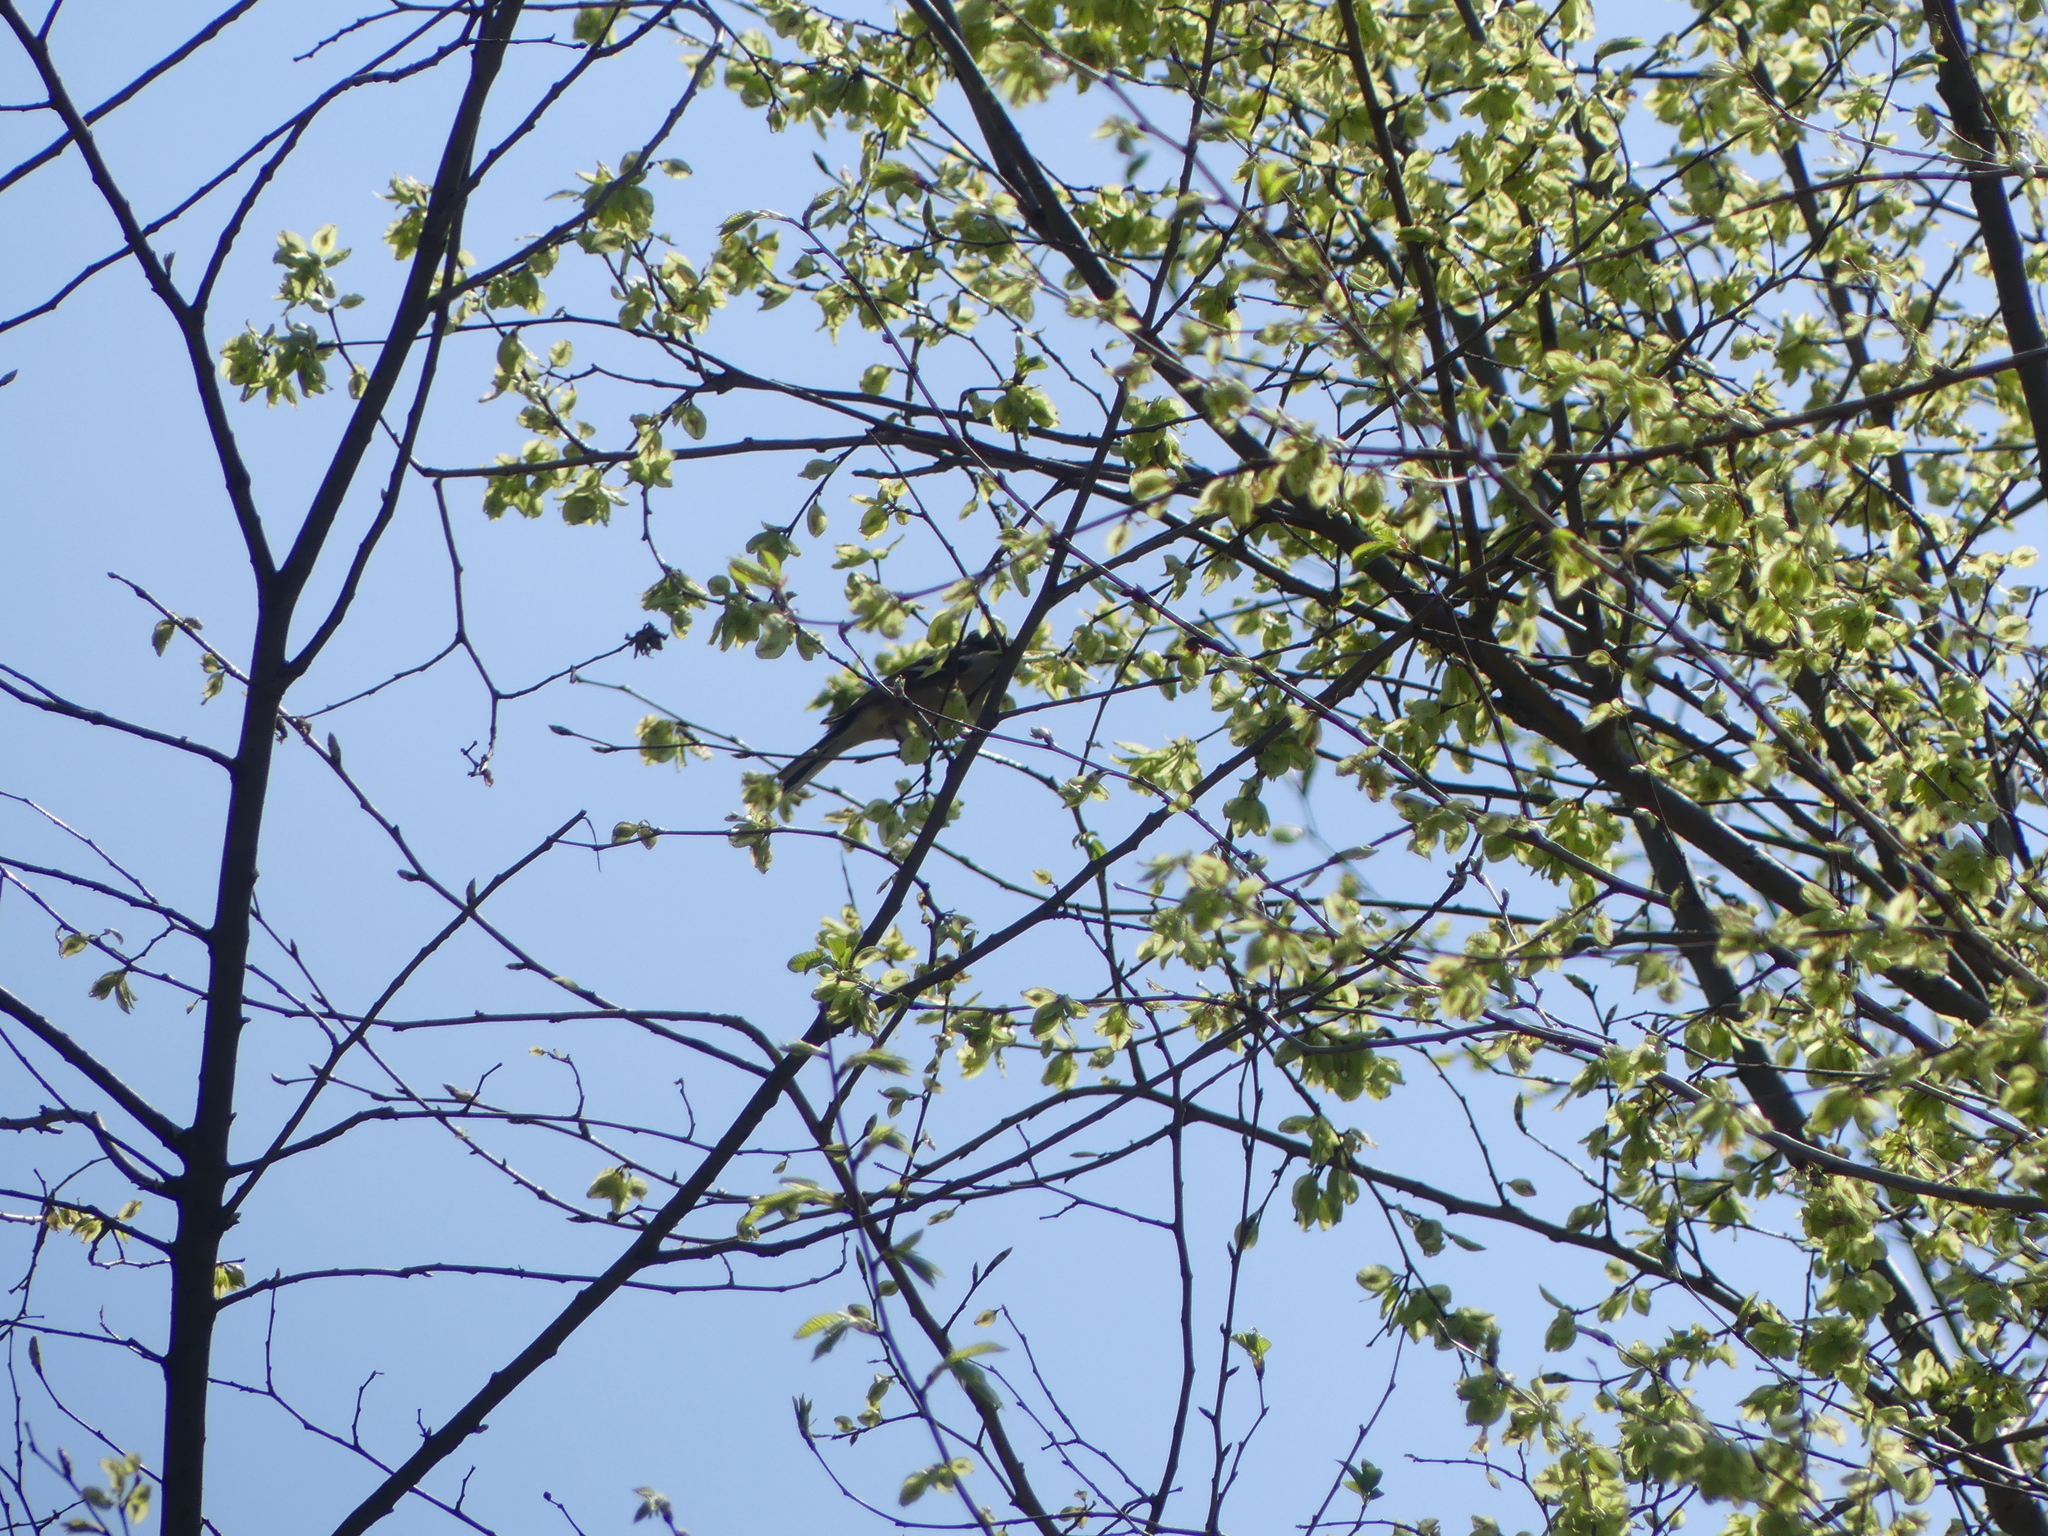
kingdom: Animalia
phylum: Chordata
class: Aves
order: Passeriformes
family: Fringillidae
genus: Fringilla
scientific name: Fringilla coelebs
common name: Common chaffinch
